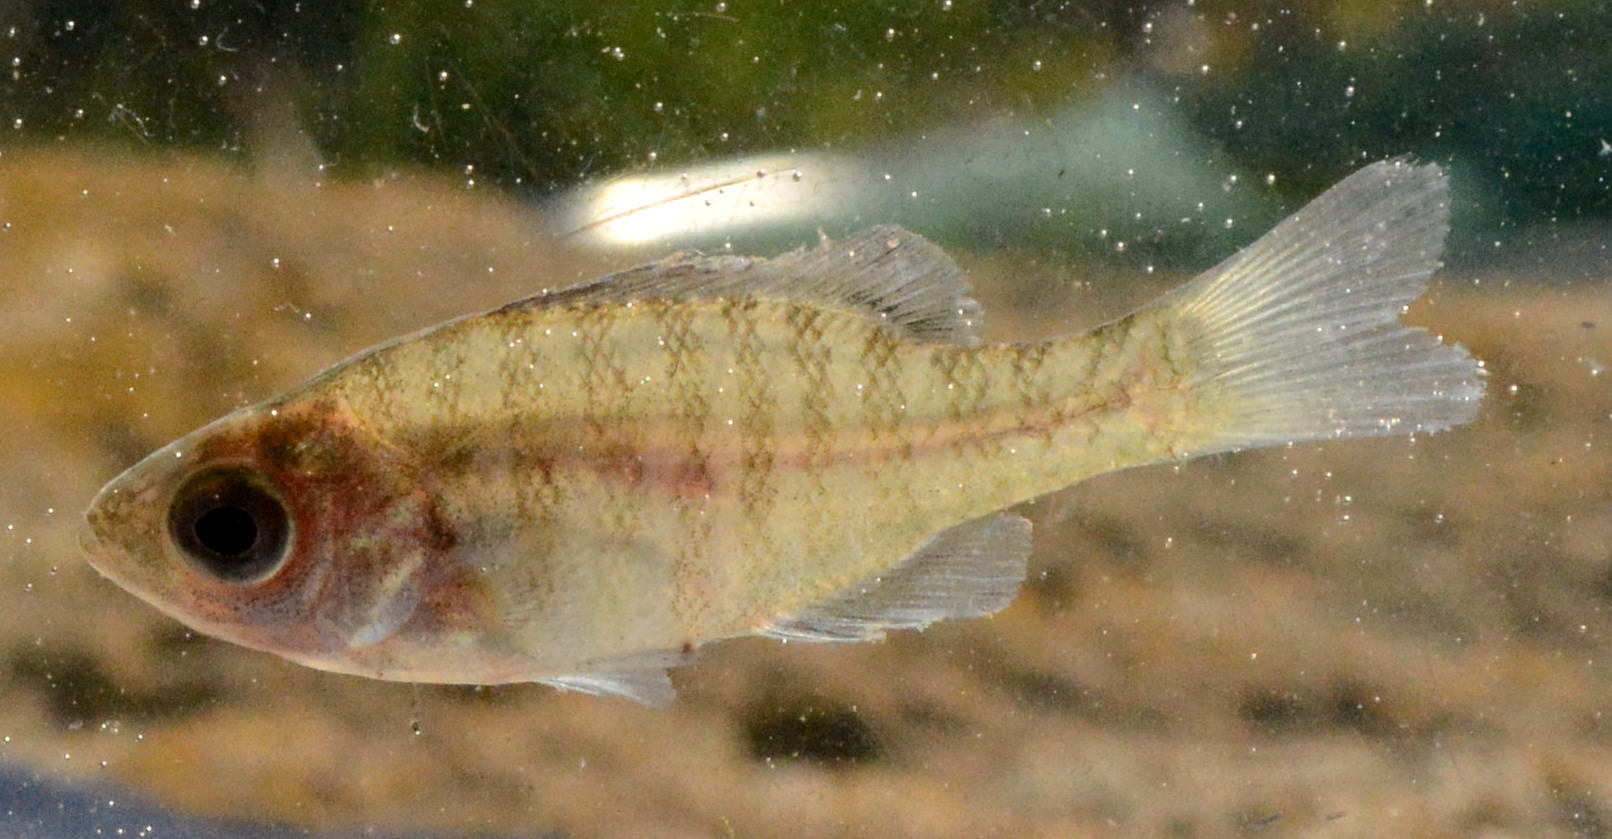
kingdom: Animalia
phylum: Chordata
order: Perciformes
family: Centrarchidae
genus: Lepomis
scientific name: Lepomis macrochirus
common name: Bluegill
